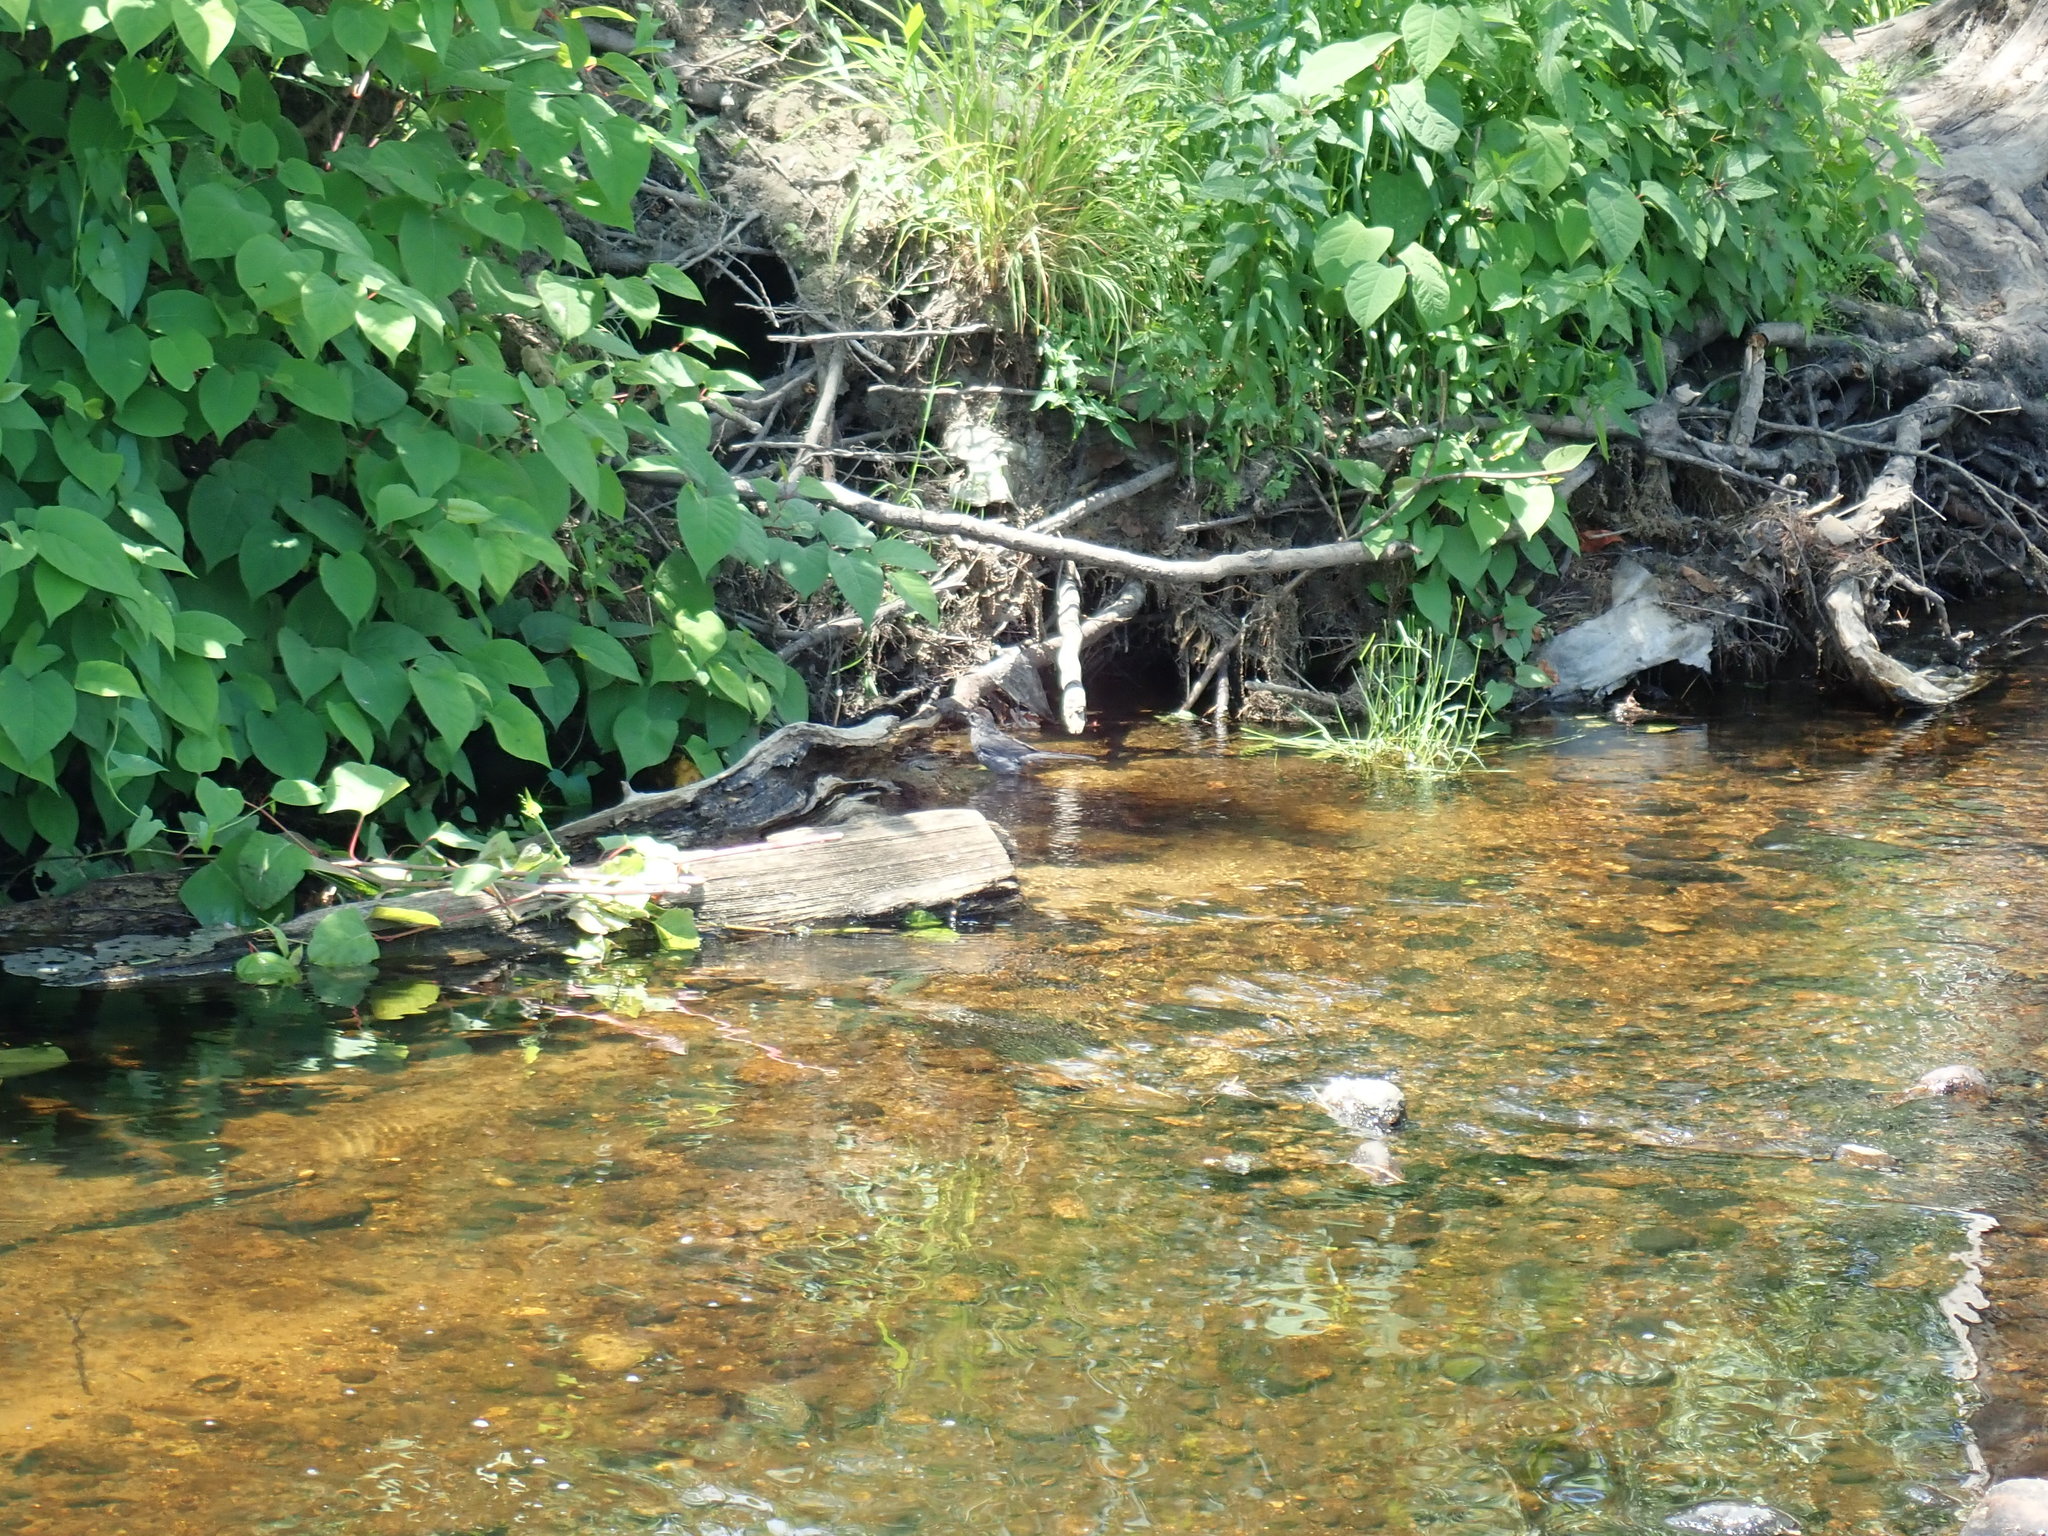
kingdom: Animalia
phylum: Chordata
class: Aves
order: Passeriformes
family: Mimidae
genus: Dumetella
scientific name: Dumetella carolinensis
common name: Gray catbird
